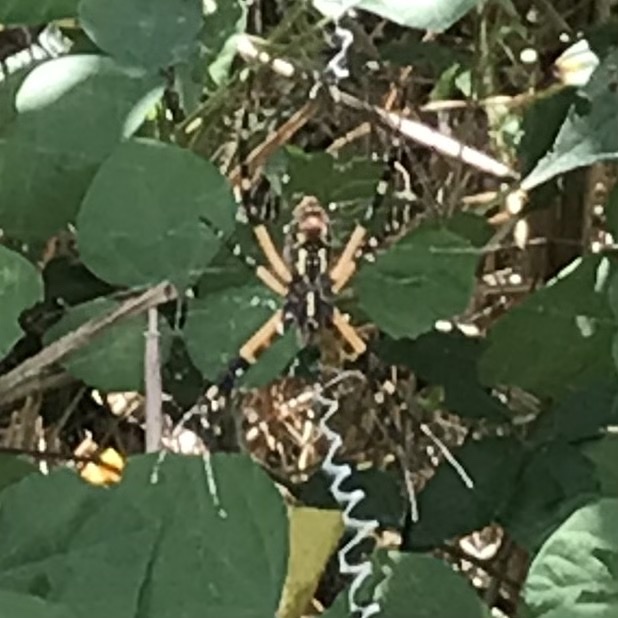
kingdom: Animalia
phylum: Arthropoda
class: Arachnida
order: Araneae
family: Araneidae
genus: Argiope
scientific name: Argiope aurantia
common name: Orb weavers
